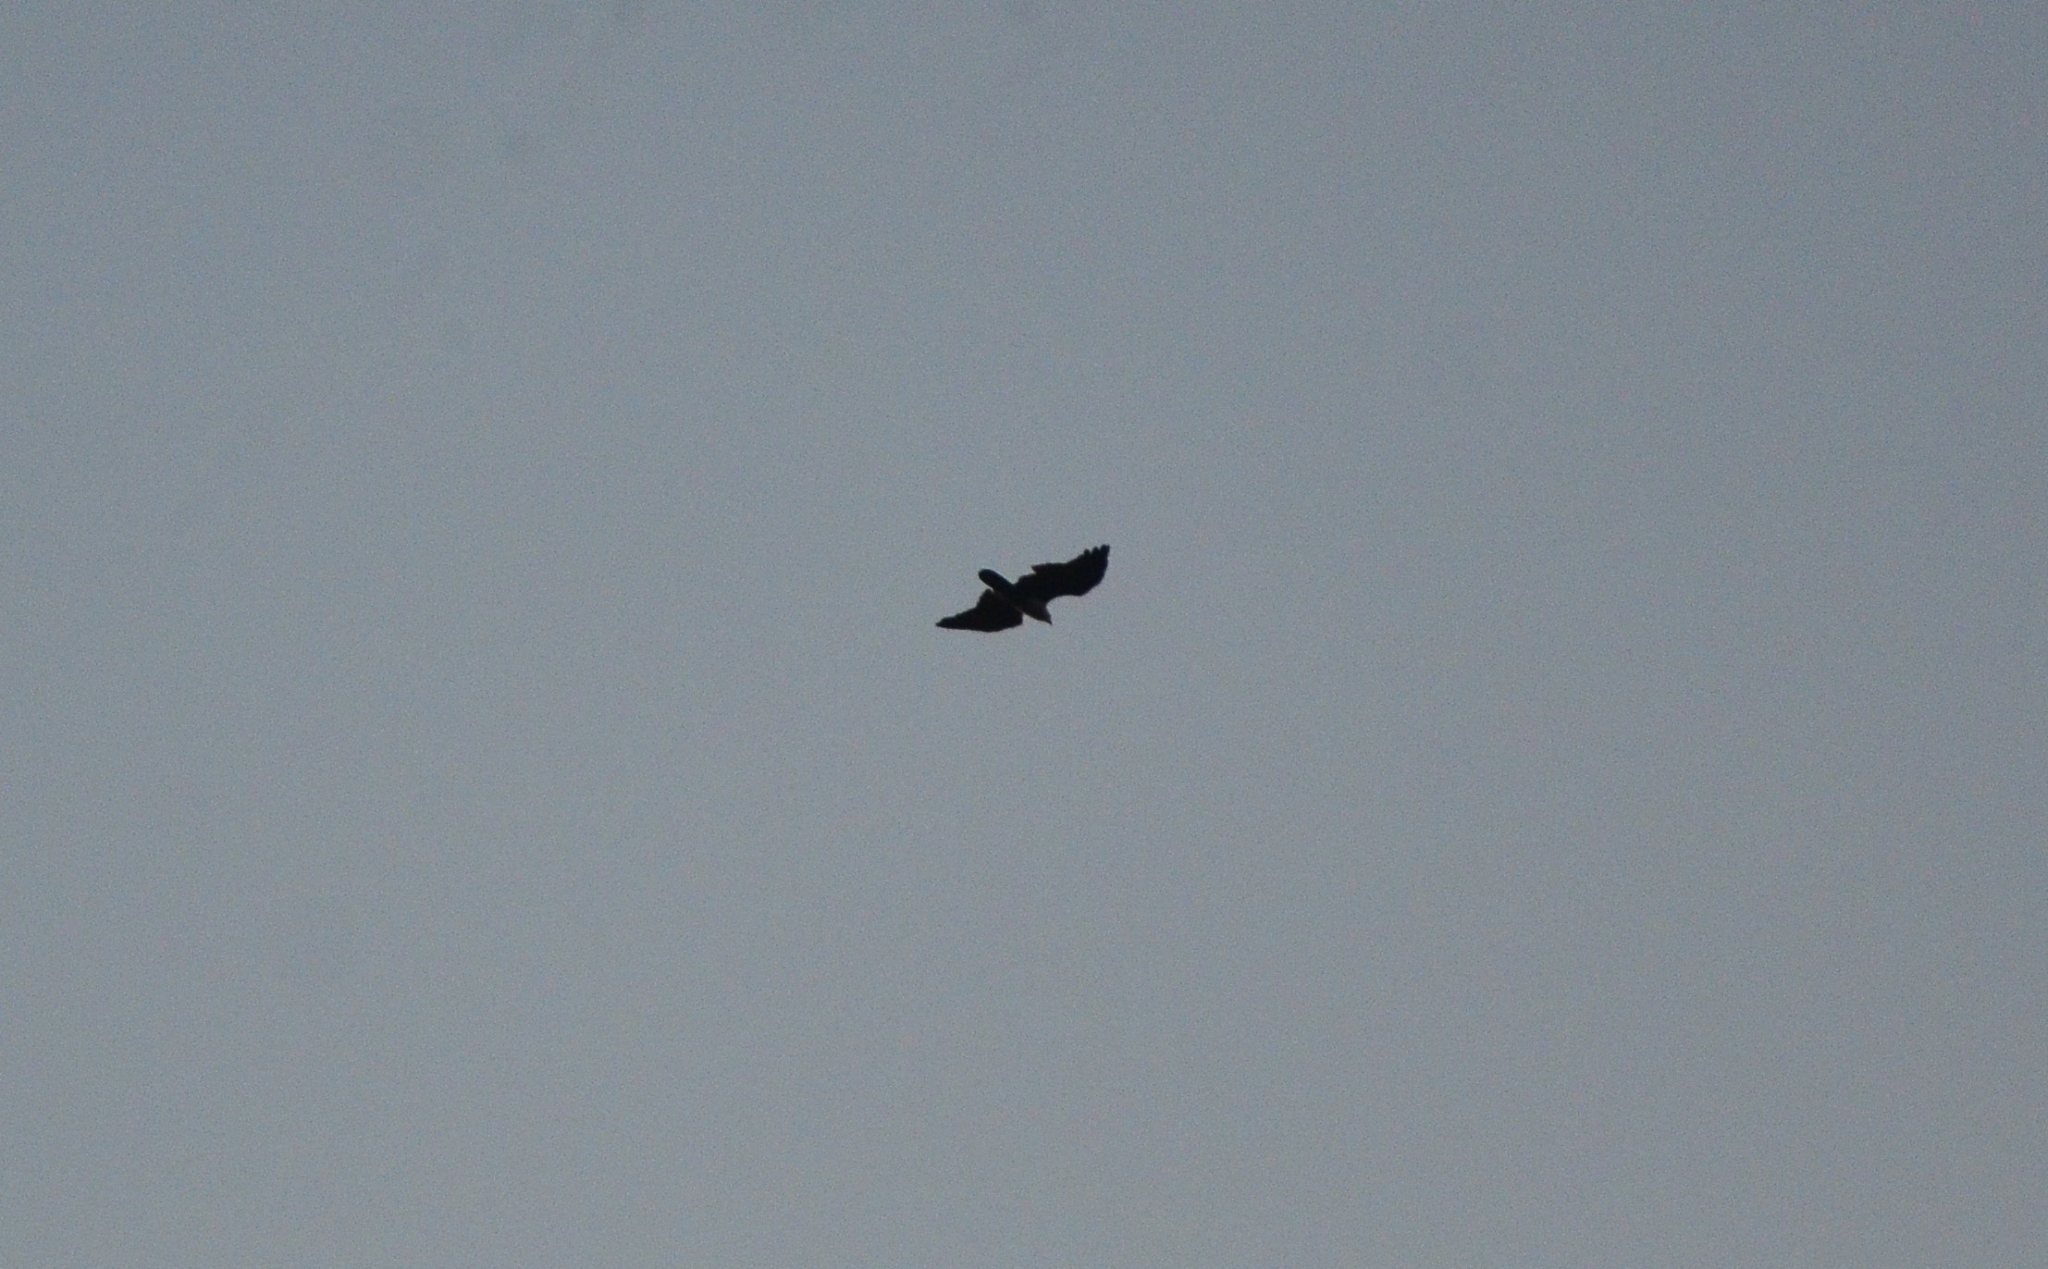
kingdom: Animalia
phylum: Chordata
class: Aves
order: Accipitriformes
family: Accipitridae
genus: Haliastur
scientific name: Haliastur indus
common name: Brahminy kite
